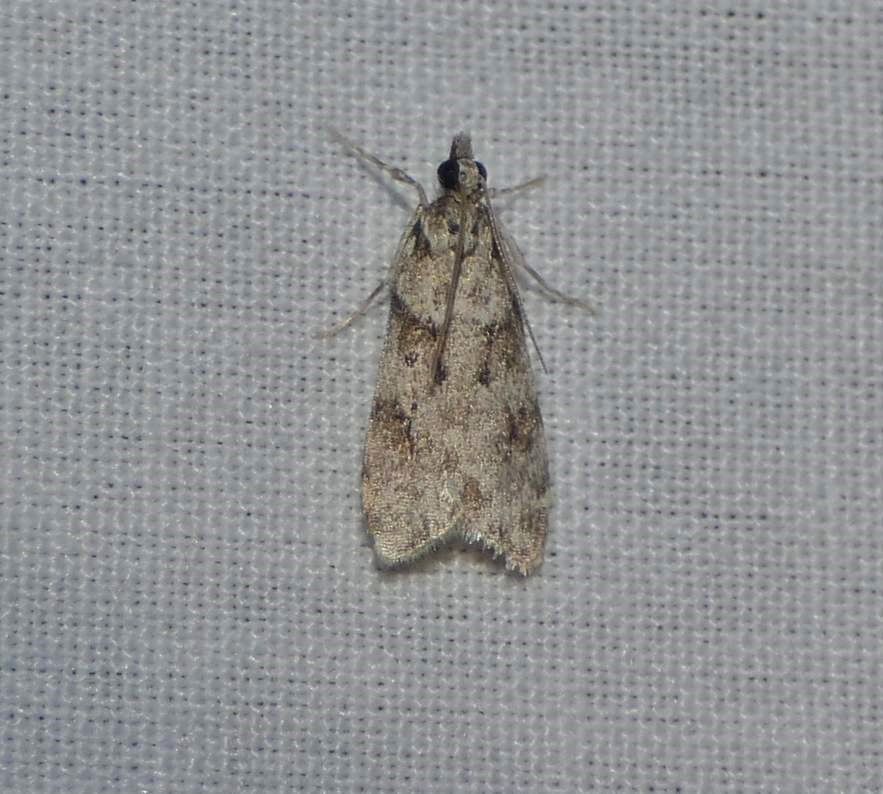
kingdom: Animalia
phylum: Arthropoda
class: Insecta
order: Lepidoptera
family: Crambidae
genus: Scoparia
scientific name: Scoparia biplagialis
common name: Double-striped scoparia moth
